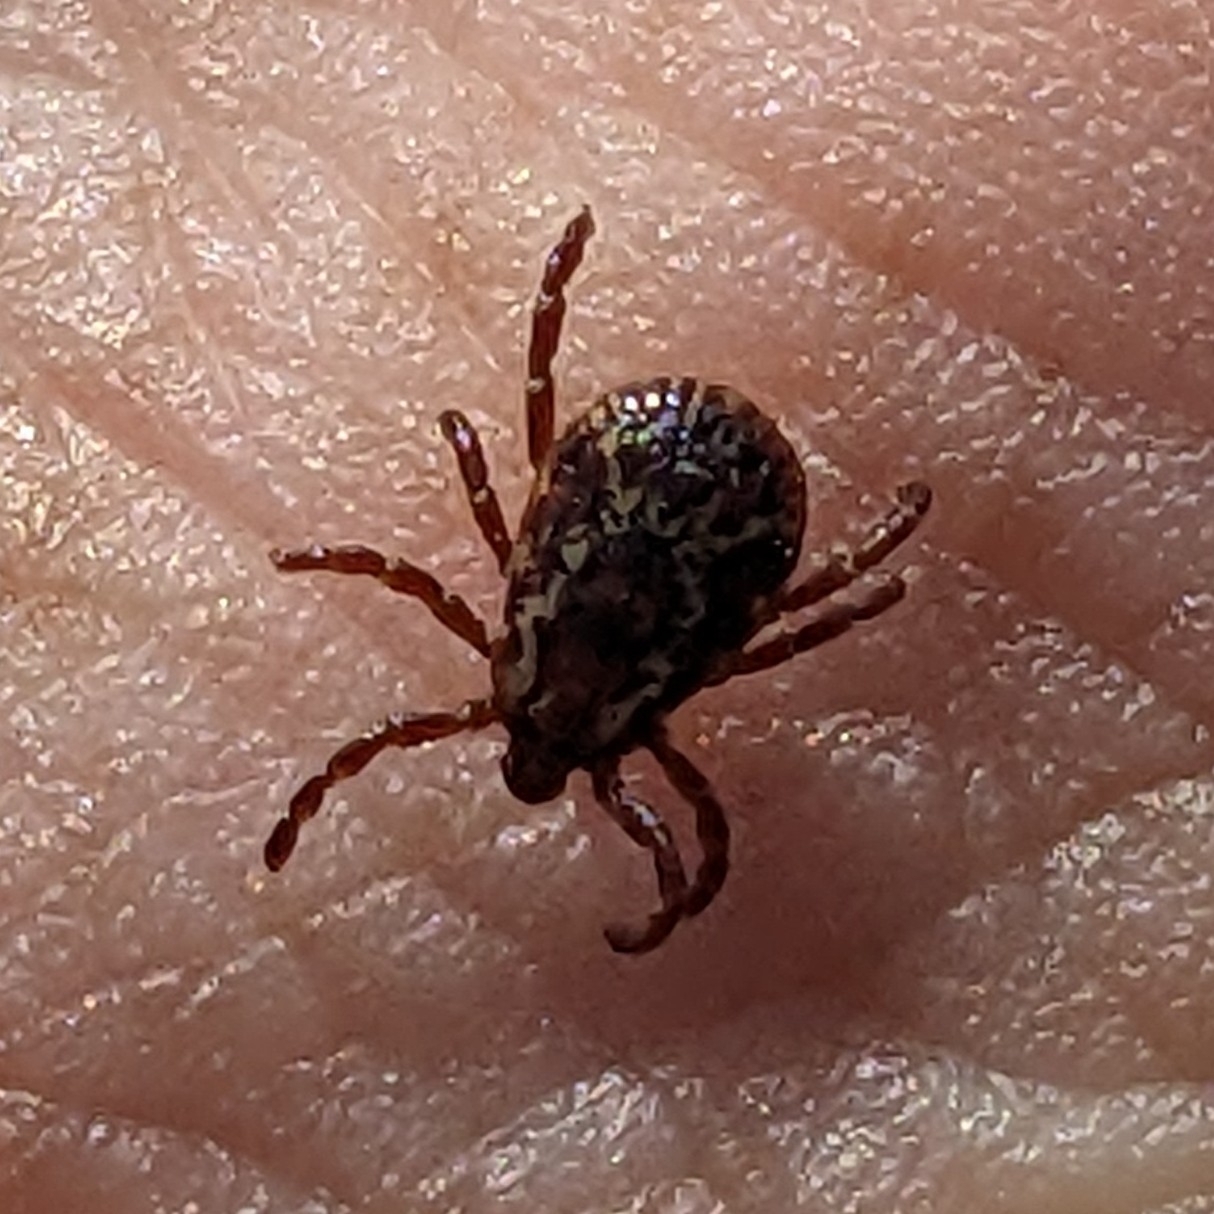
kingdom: Animalia
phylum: Arthropoda
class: Arachnida
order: Ixodida
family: Ixodidae
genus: Dermacentor
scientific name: Dermacentor variabilis
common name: American dog tick
